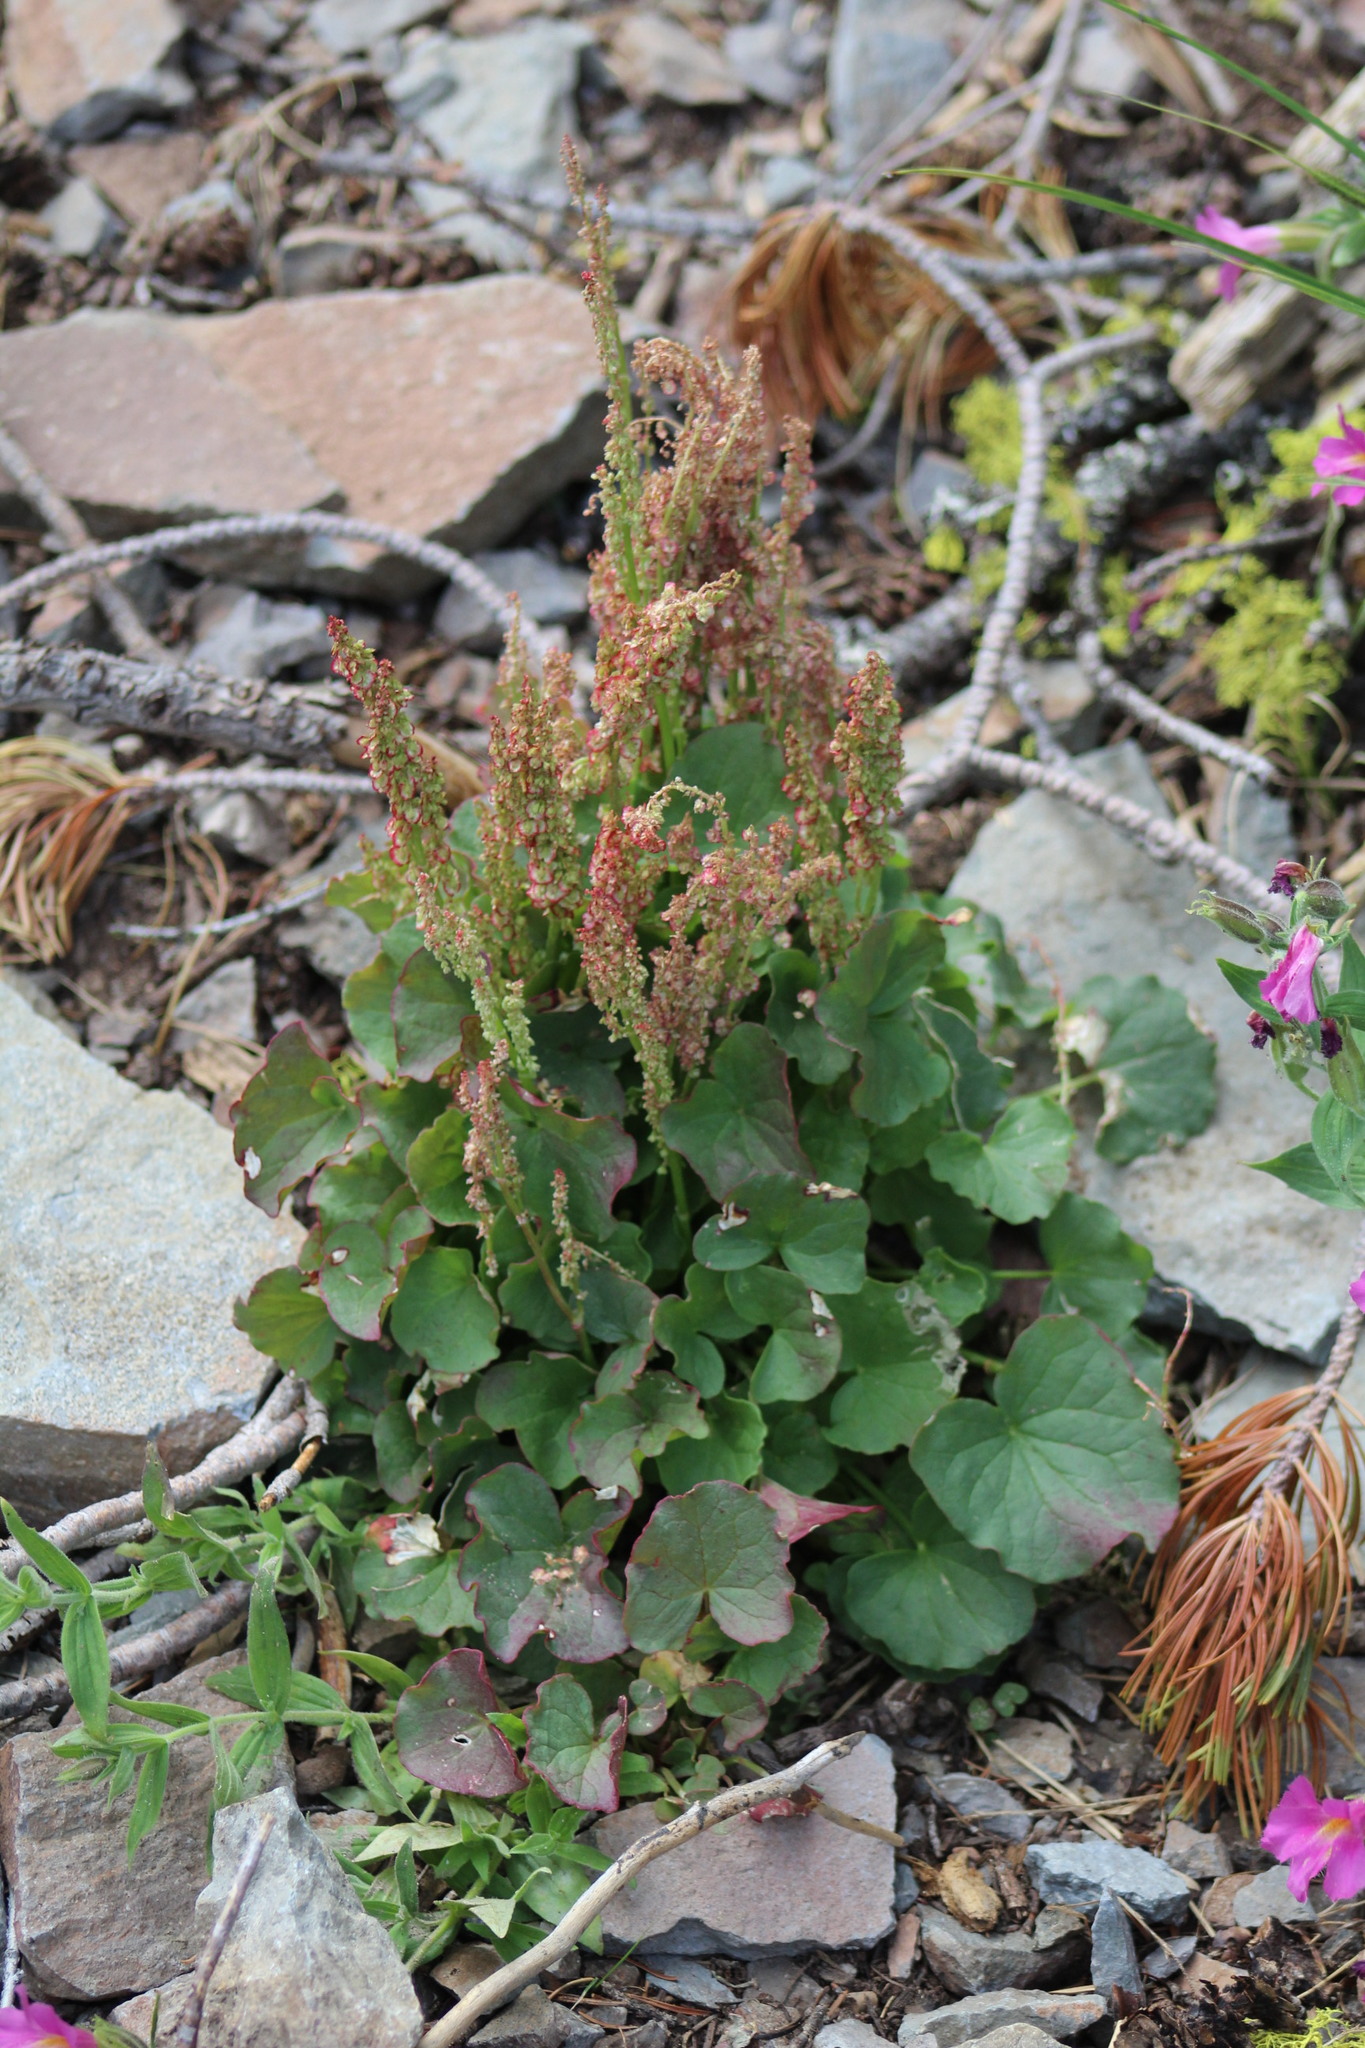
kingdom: Plantae
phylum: Tracheophyta
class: Magnoliopsida
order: Caryophyllales
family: Polygonaceae
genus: Oxyria
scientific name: Oxyria digyna
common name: Alpine mountain-sorrel
